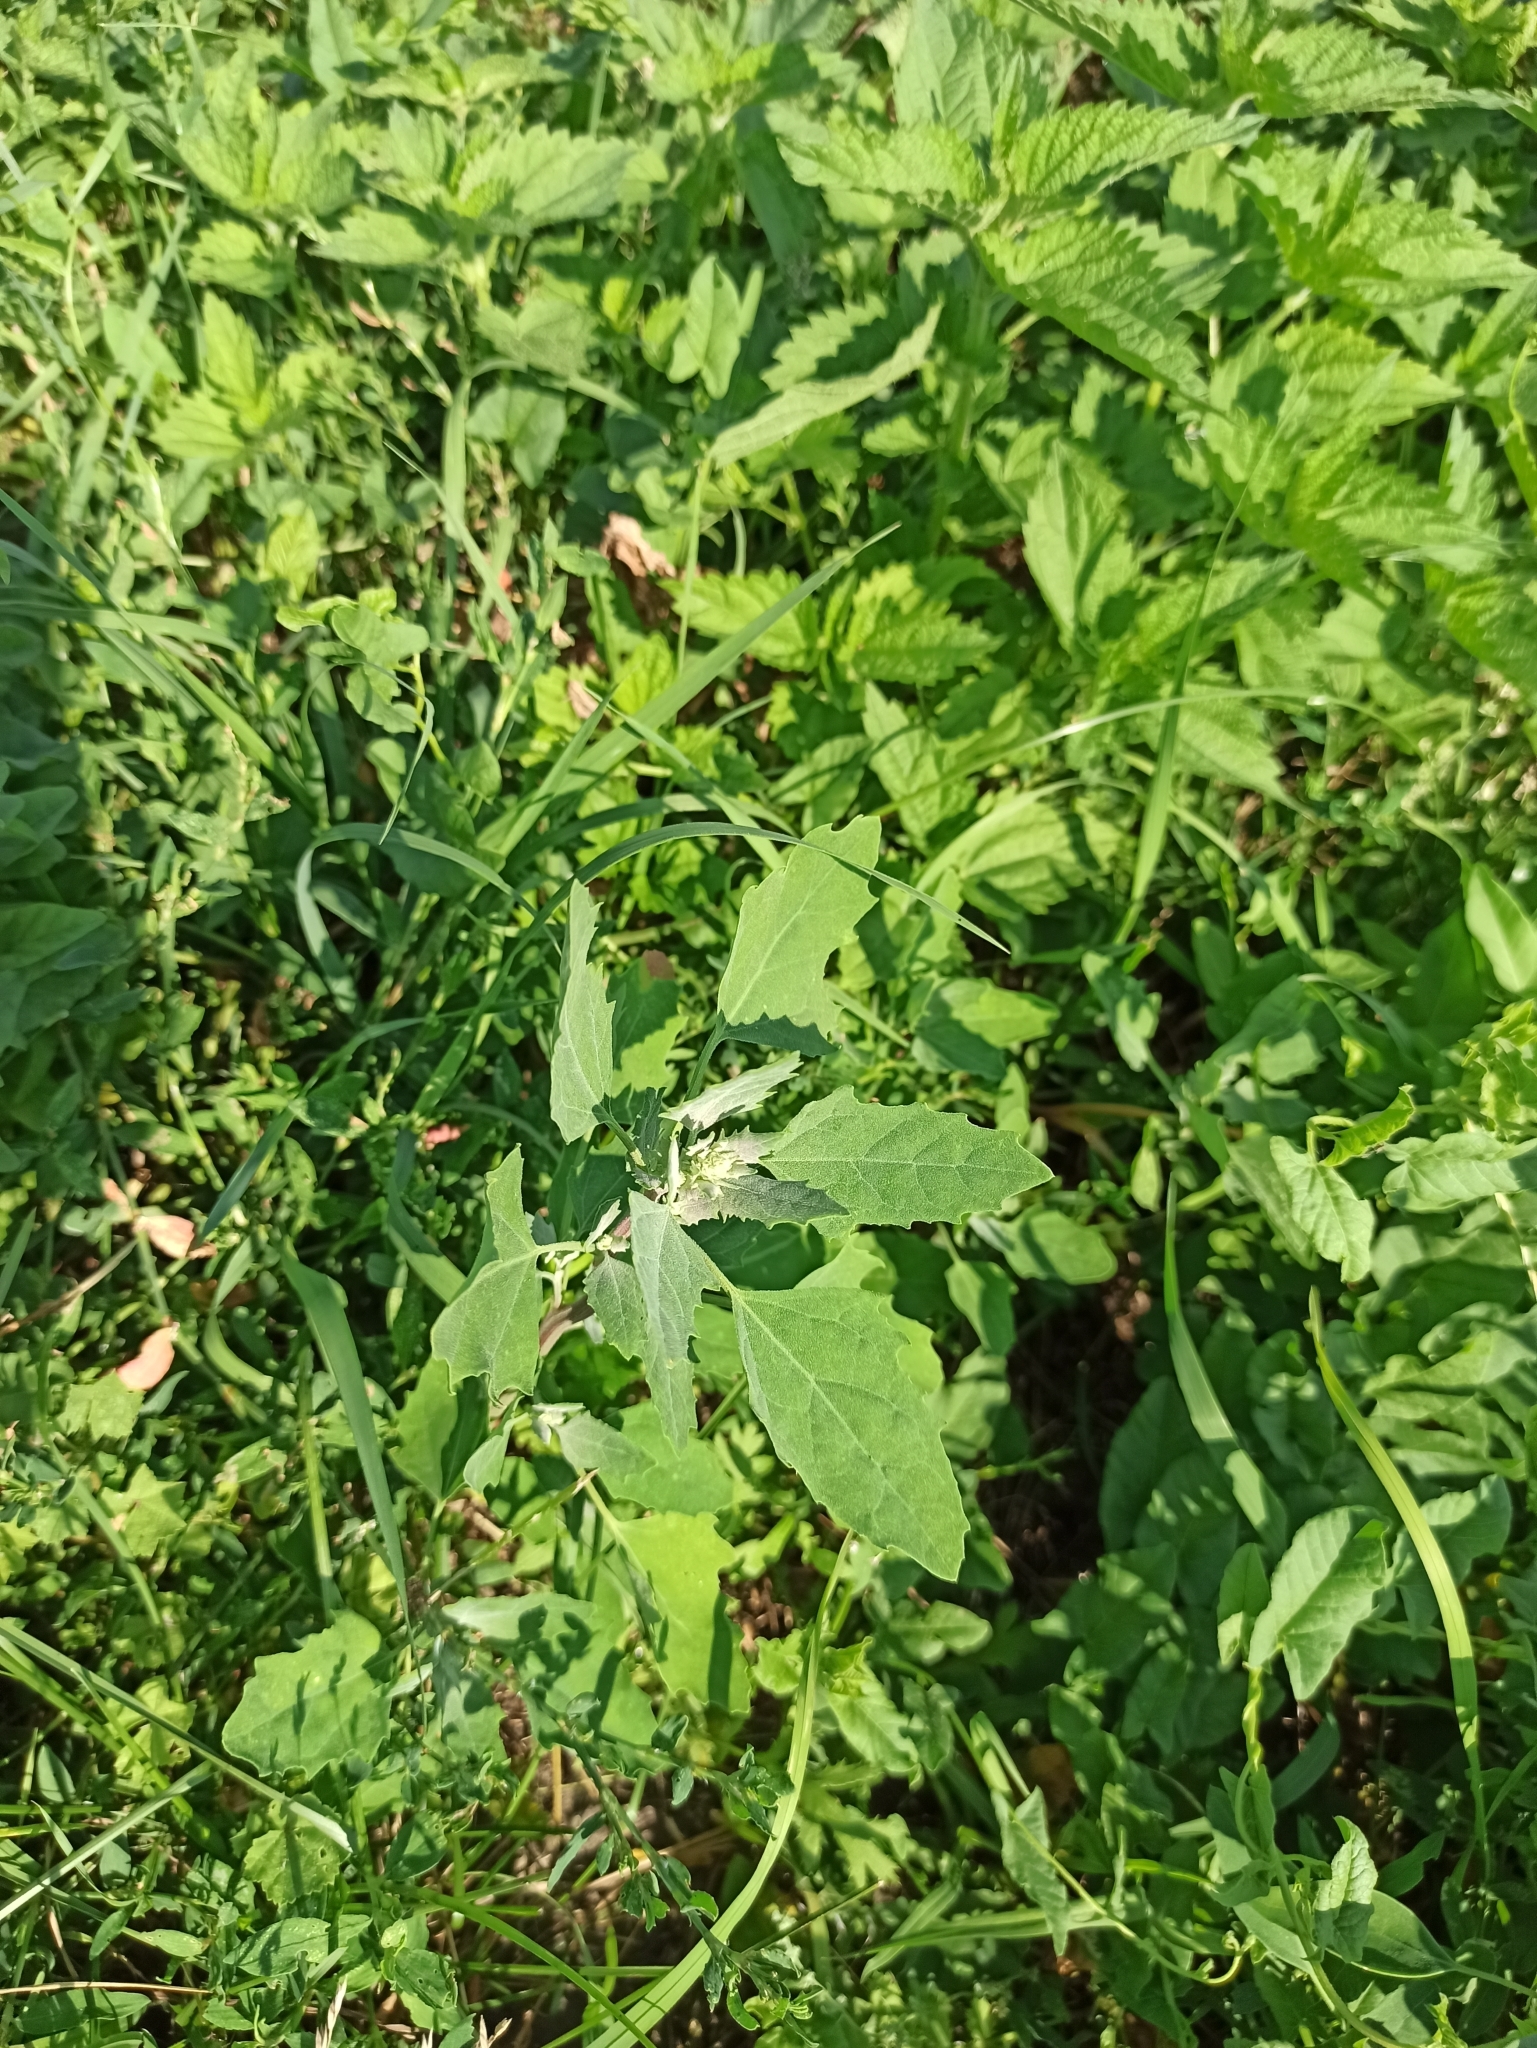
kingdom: Plantae
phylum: Tracheophyta
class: Magnoliopsida
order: Caryophyllales
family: Amaranthaceae
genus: Chenopodium
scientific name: Chenopodium album
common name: Fat-hen
